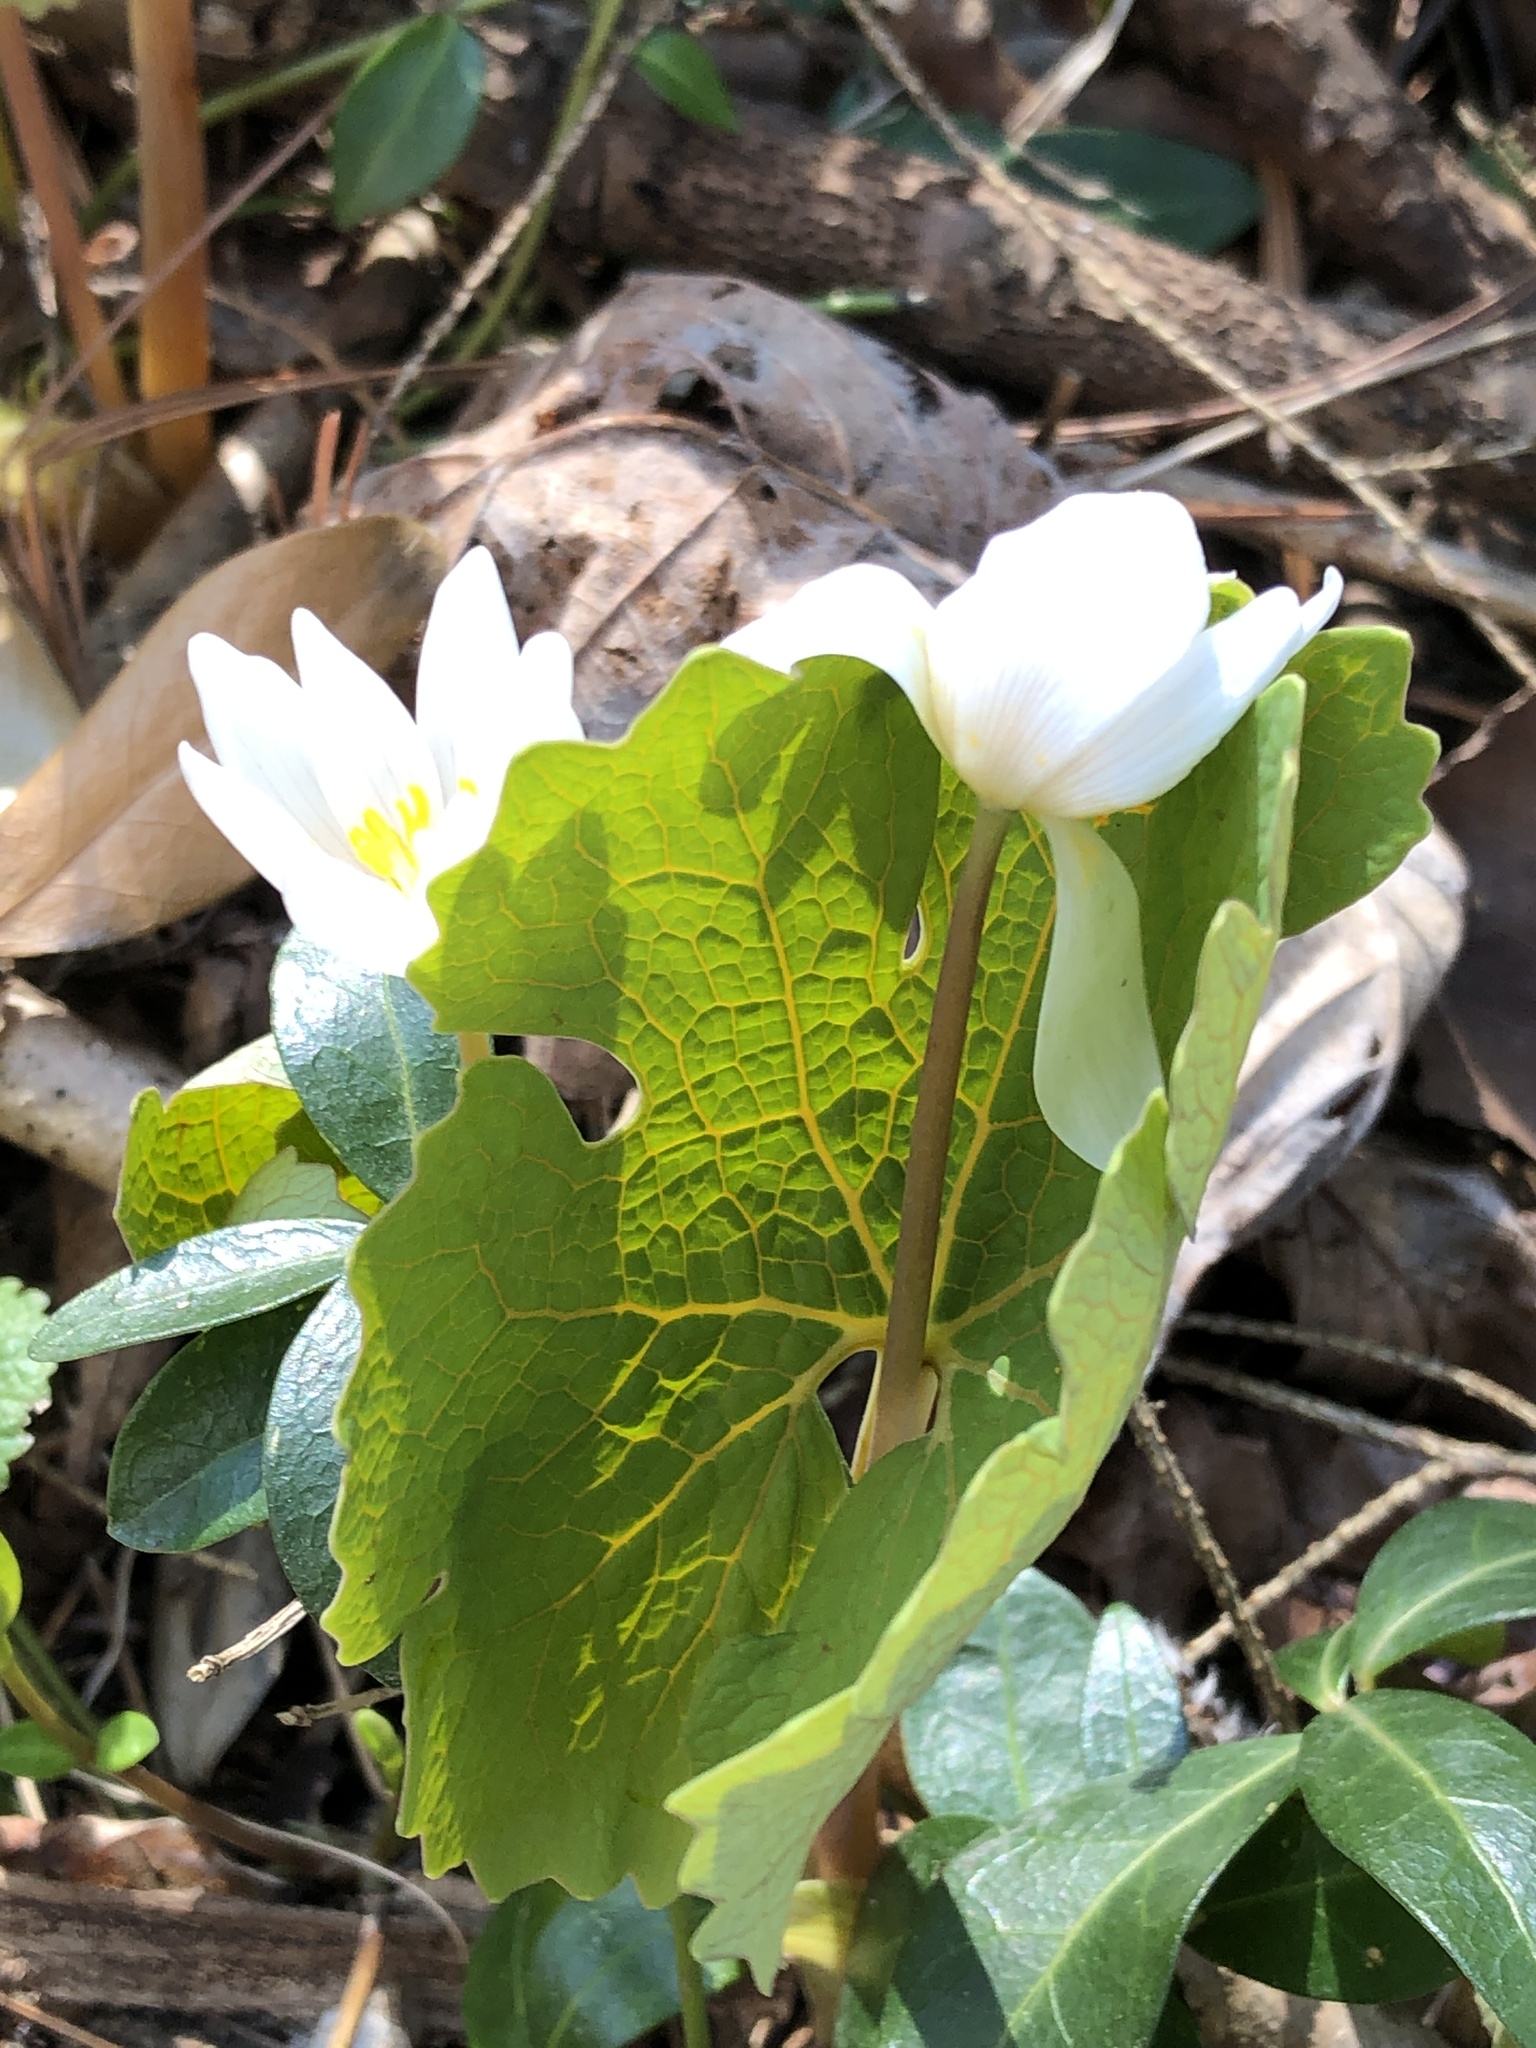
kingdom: Plantae
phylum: Tracheophyta
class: Magnoliopsida
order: Ranunculales
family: Papaveraceae
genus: Sanguinaria
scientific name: Sanguinaria canadensis
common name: Bloodroot
